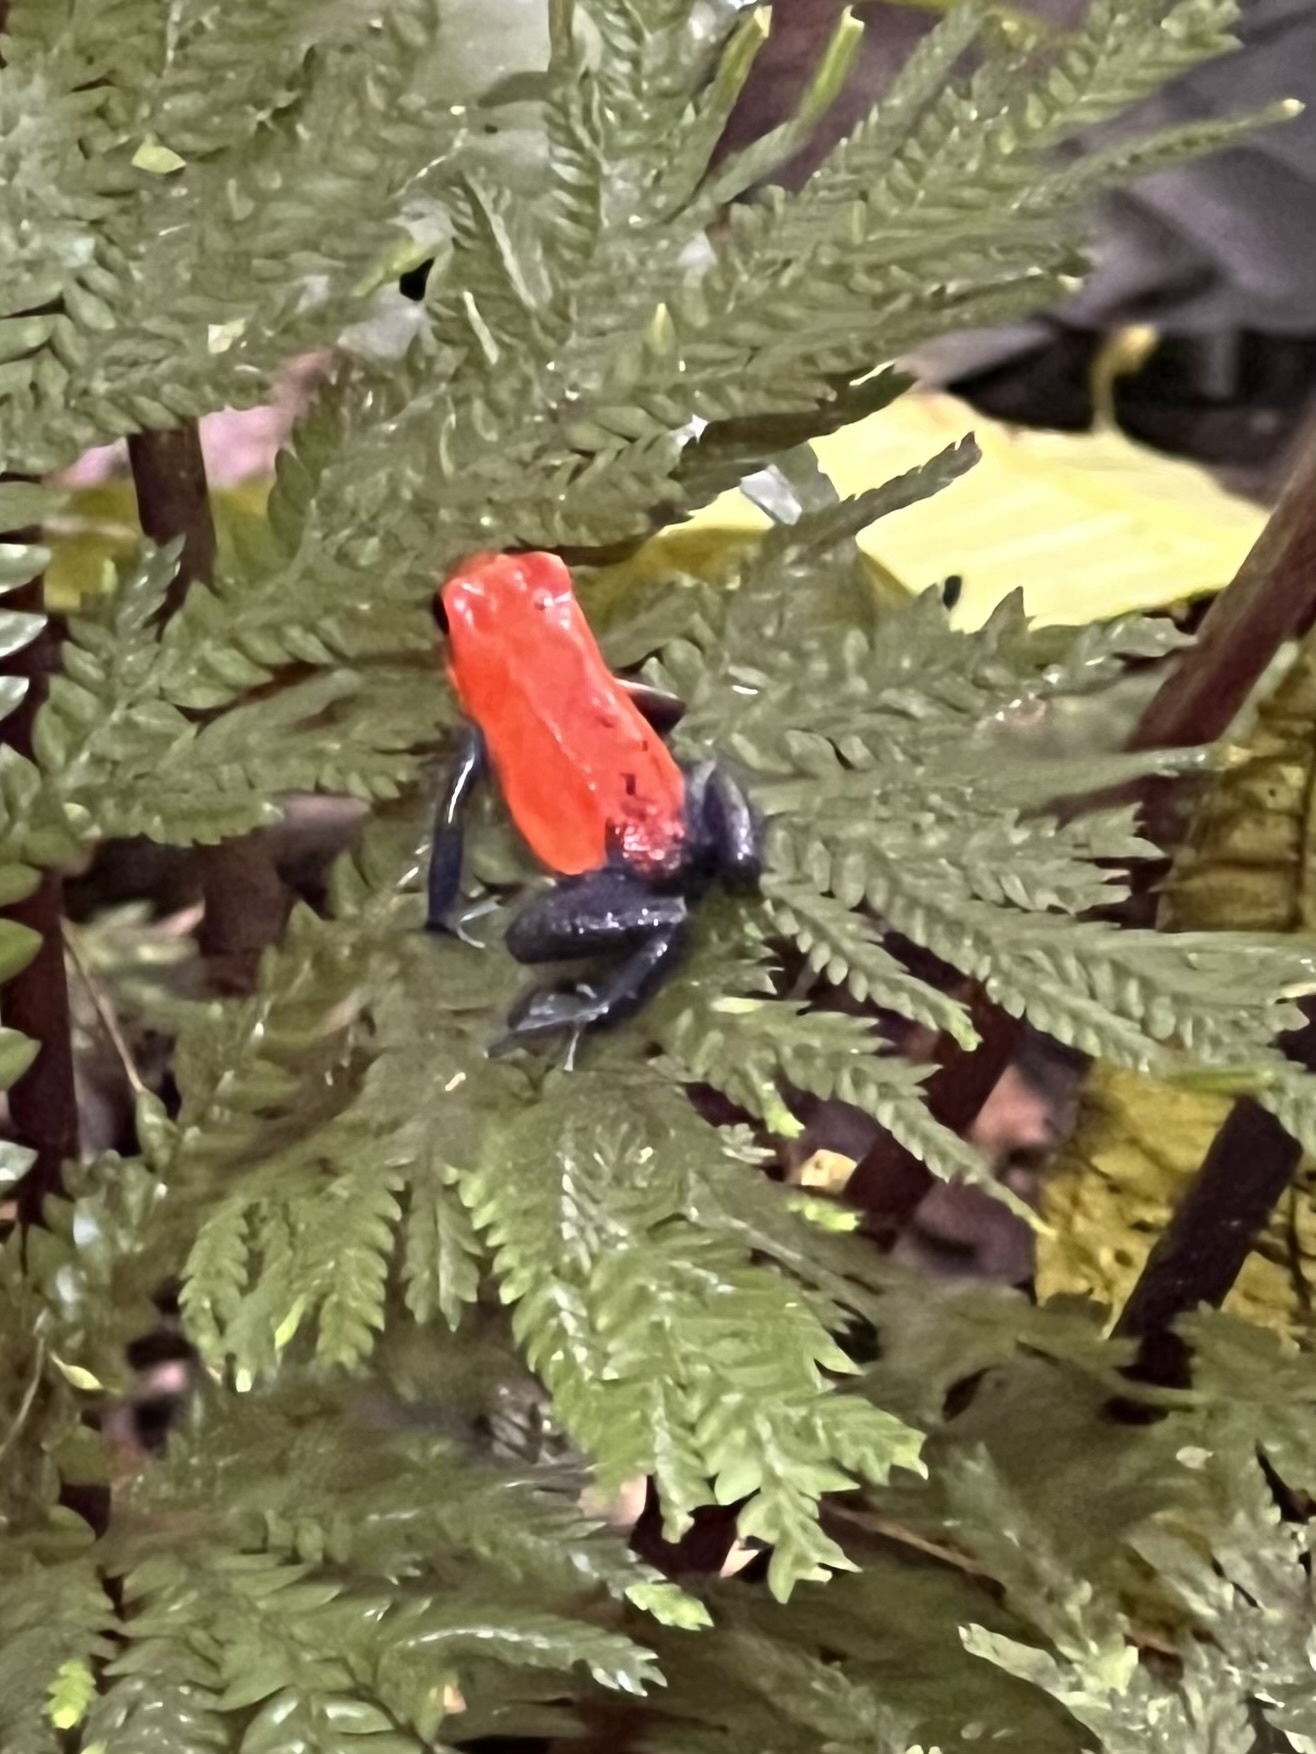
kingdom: Animalia
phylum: Chordata
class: Amphibia
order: Anura
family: Dendrobatidae
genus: Oophaga
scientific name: Oophaga pumilio
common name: Flaming poison frog
